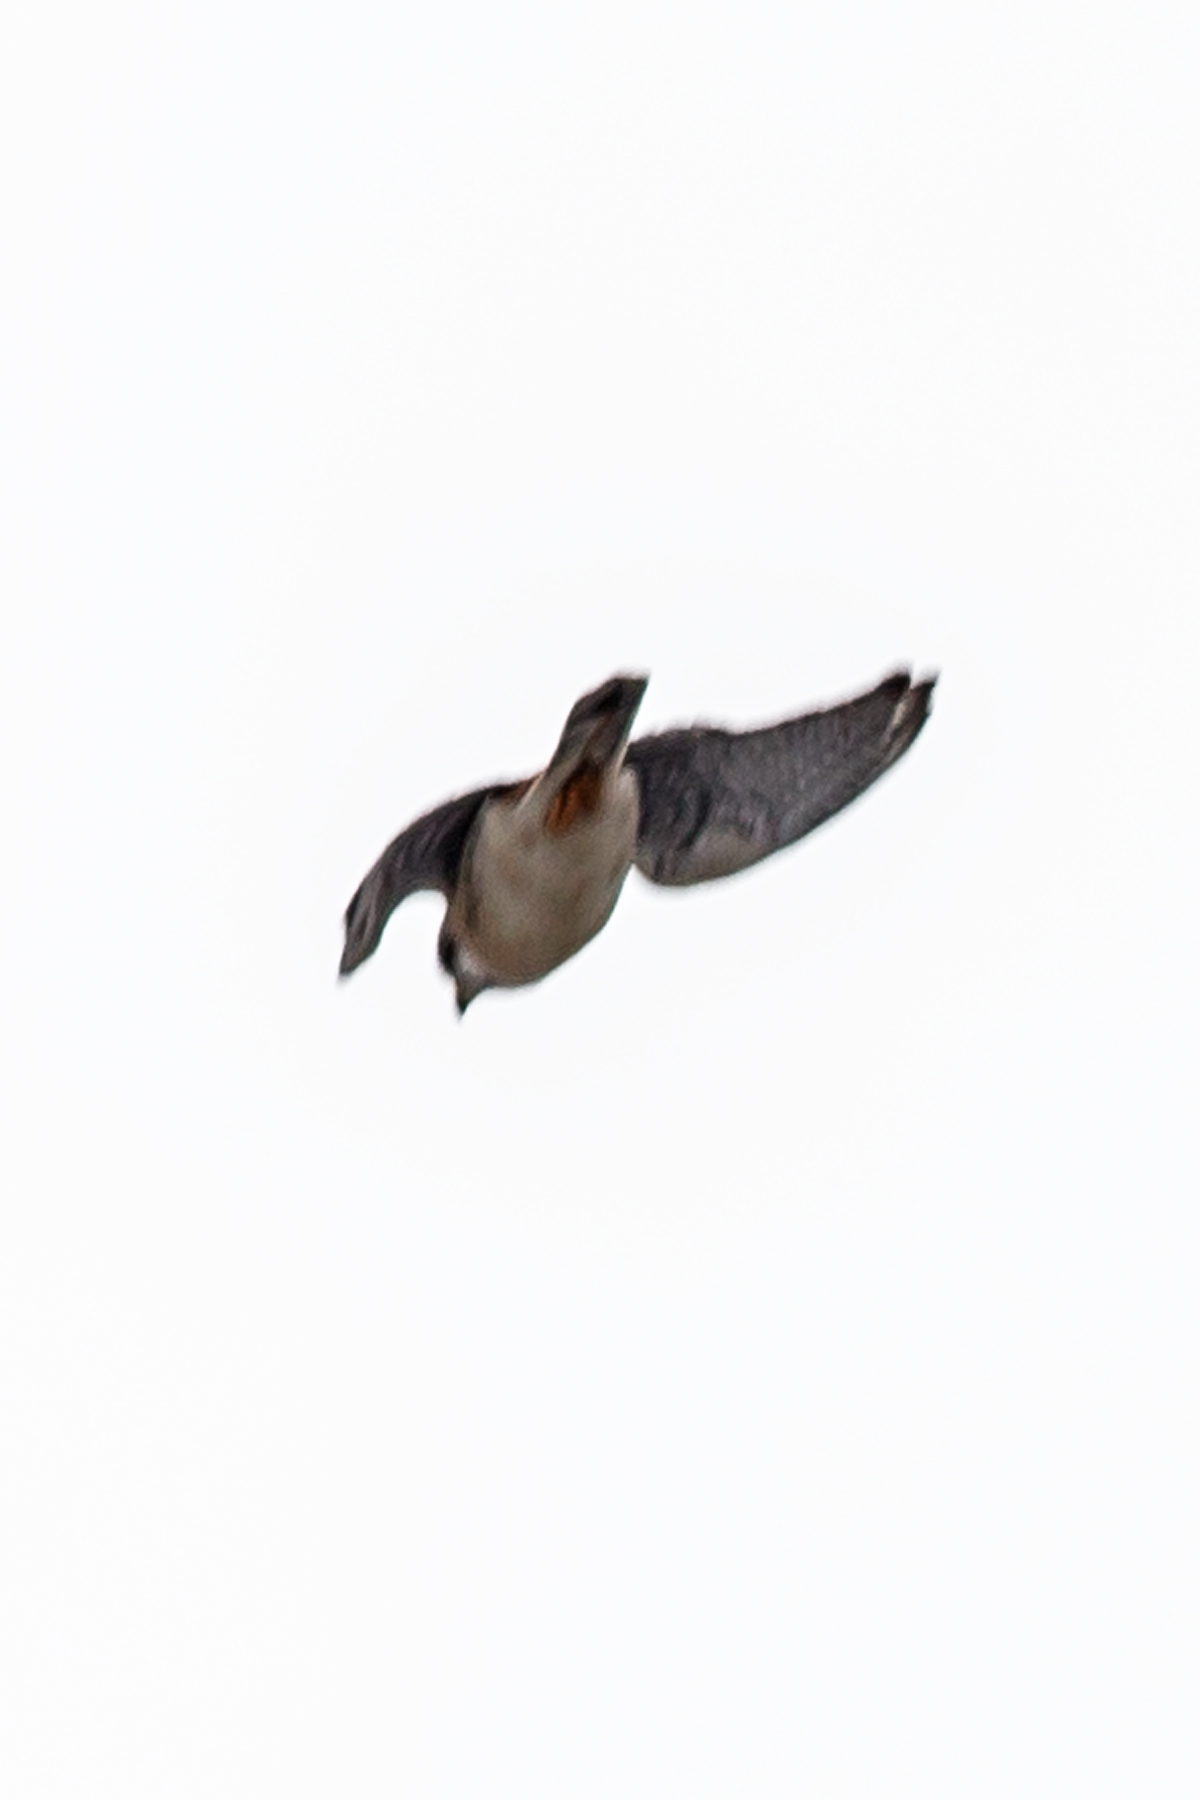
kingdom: Animalia
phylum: Chordata
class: Aves
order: Falconiformes
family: Falconidae
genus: Falco
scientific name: Falco sparverius
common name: American kestrel
